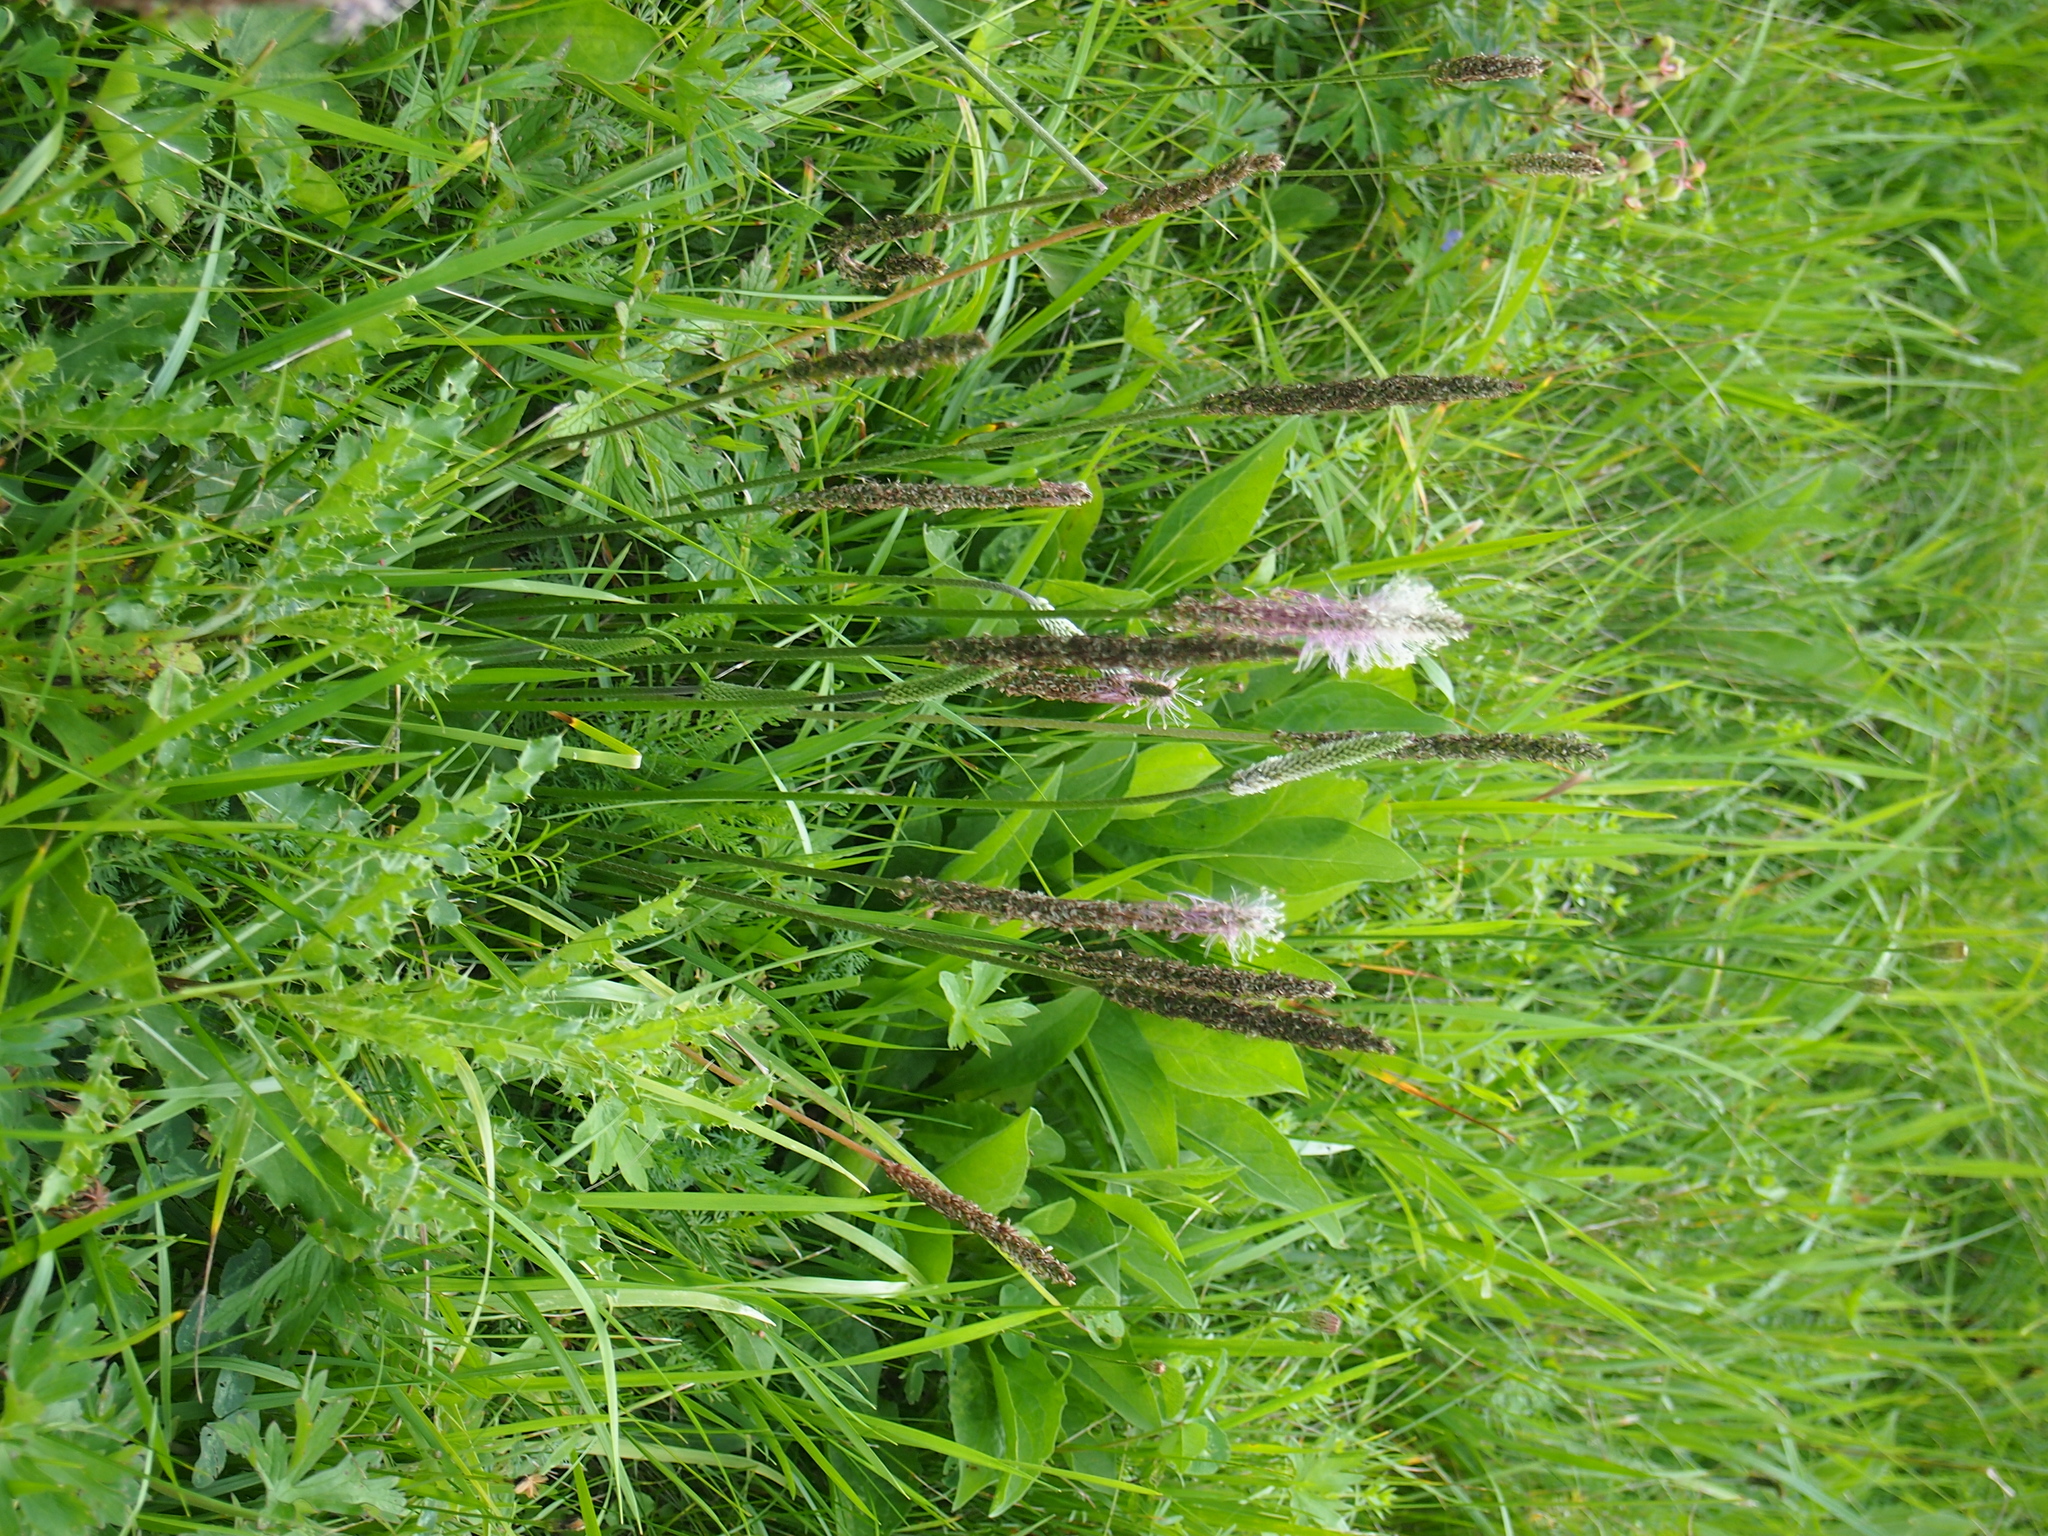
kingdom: Plantae
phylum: Tracheophyta
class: Magnoliopsida
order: Lamiales
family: Plantaginaceae
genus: Plantago
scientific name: Plantago media
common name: Hoary plantain
